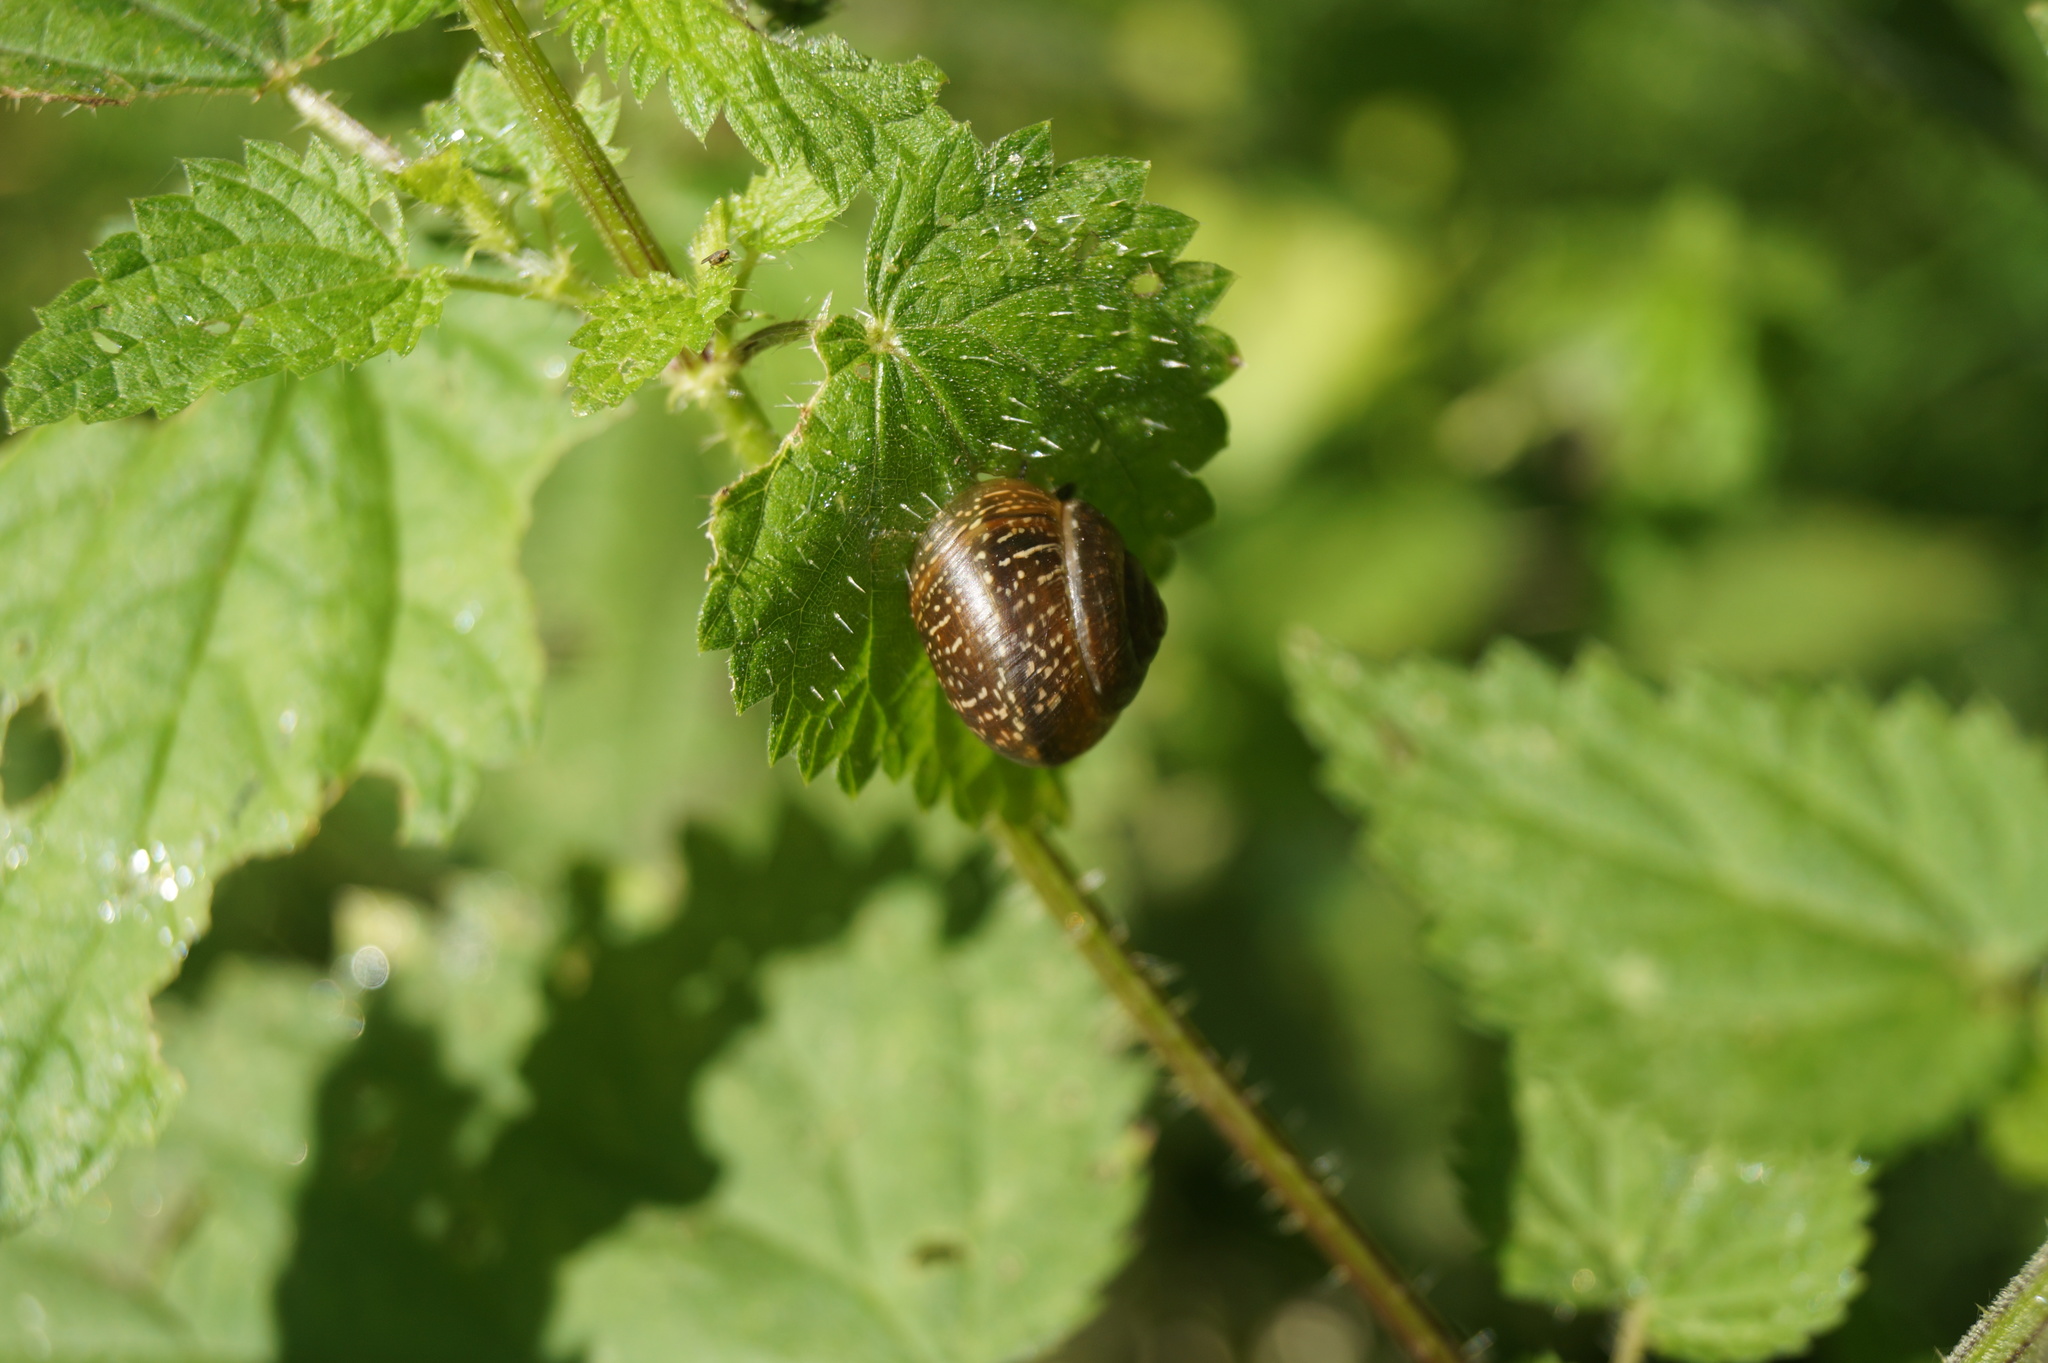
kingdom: Animalia
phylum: Mollusca
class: Gastropoda
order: Stylommatophora
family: Helicidae
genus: Arianta
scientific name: Arianta arbustorum
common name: Copse snail
